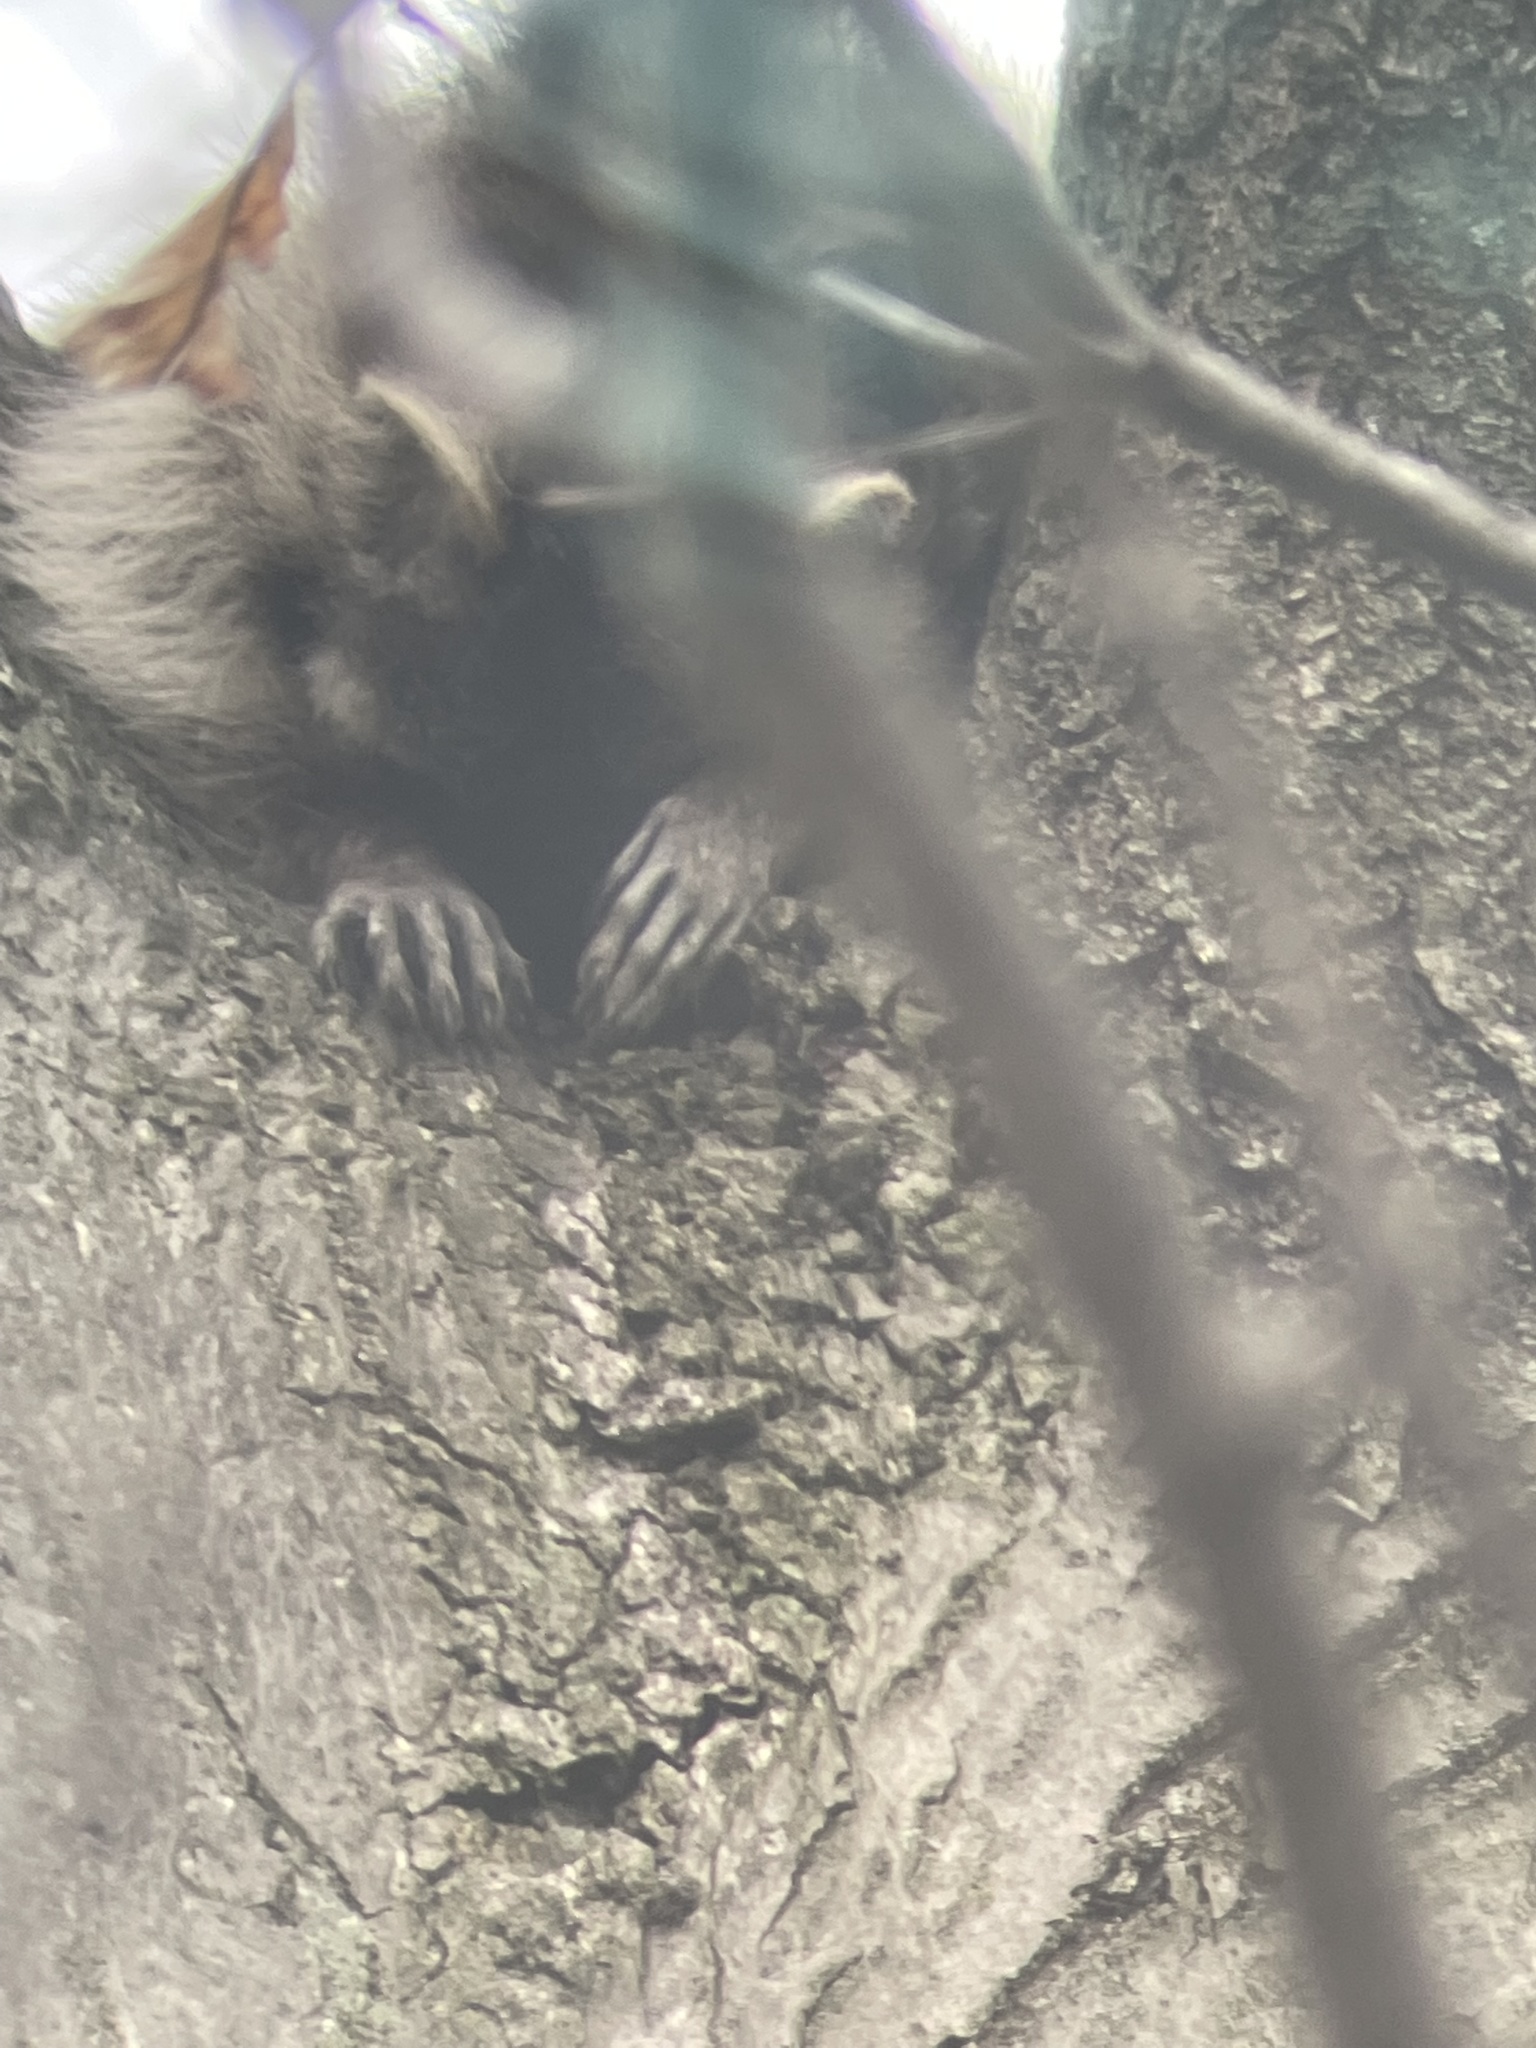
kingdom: Animalia
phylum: Chordata
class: Mammalia
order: Carnivora
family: Procyonidae
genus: Procyon
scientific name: Procyon lotor
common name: Raccoon
